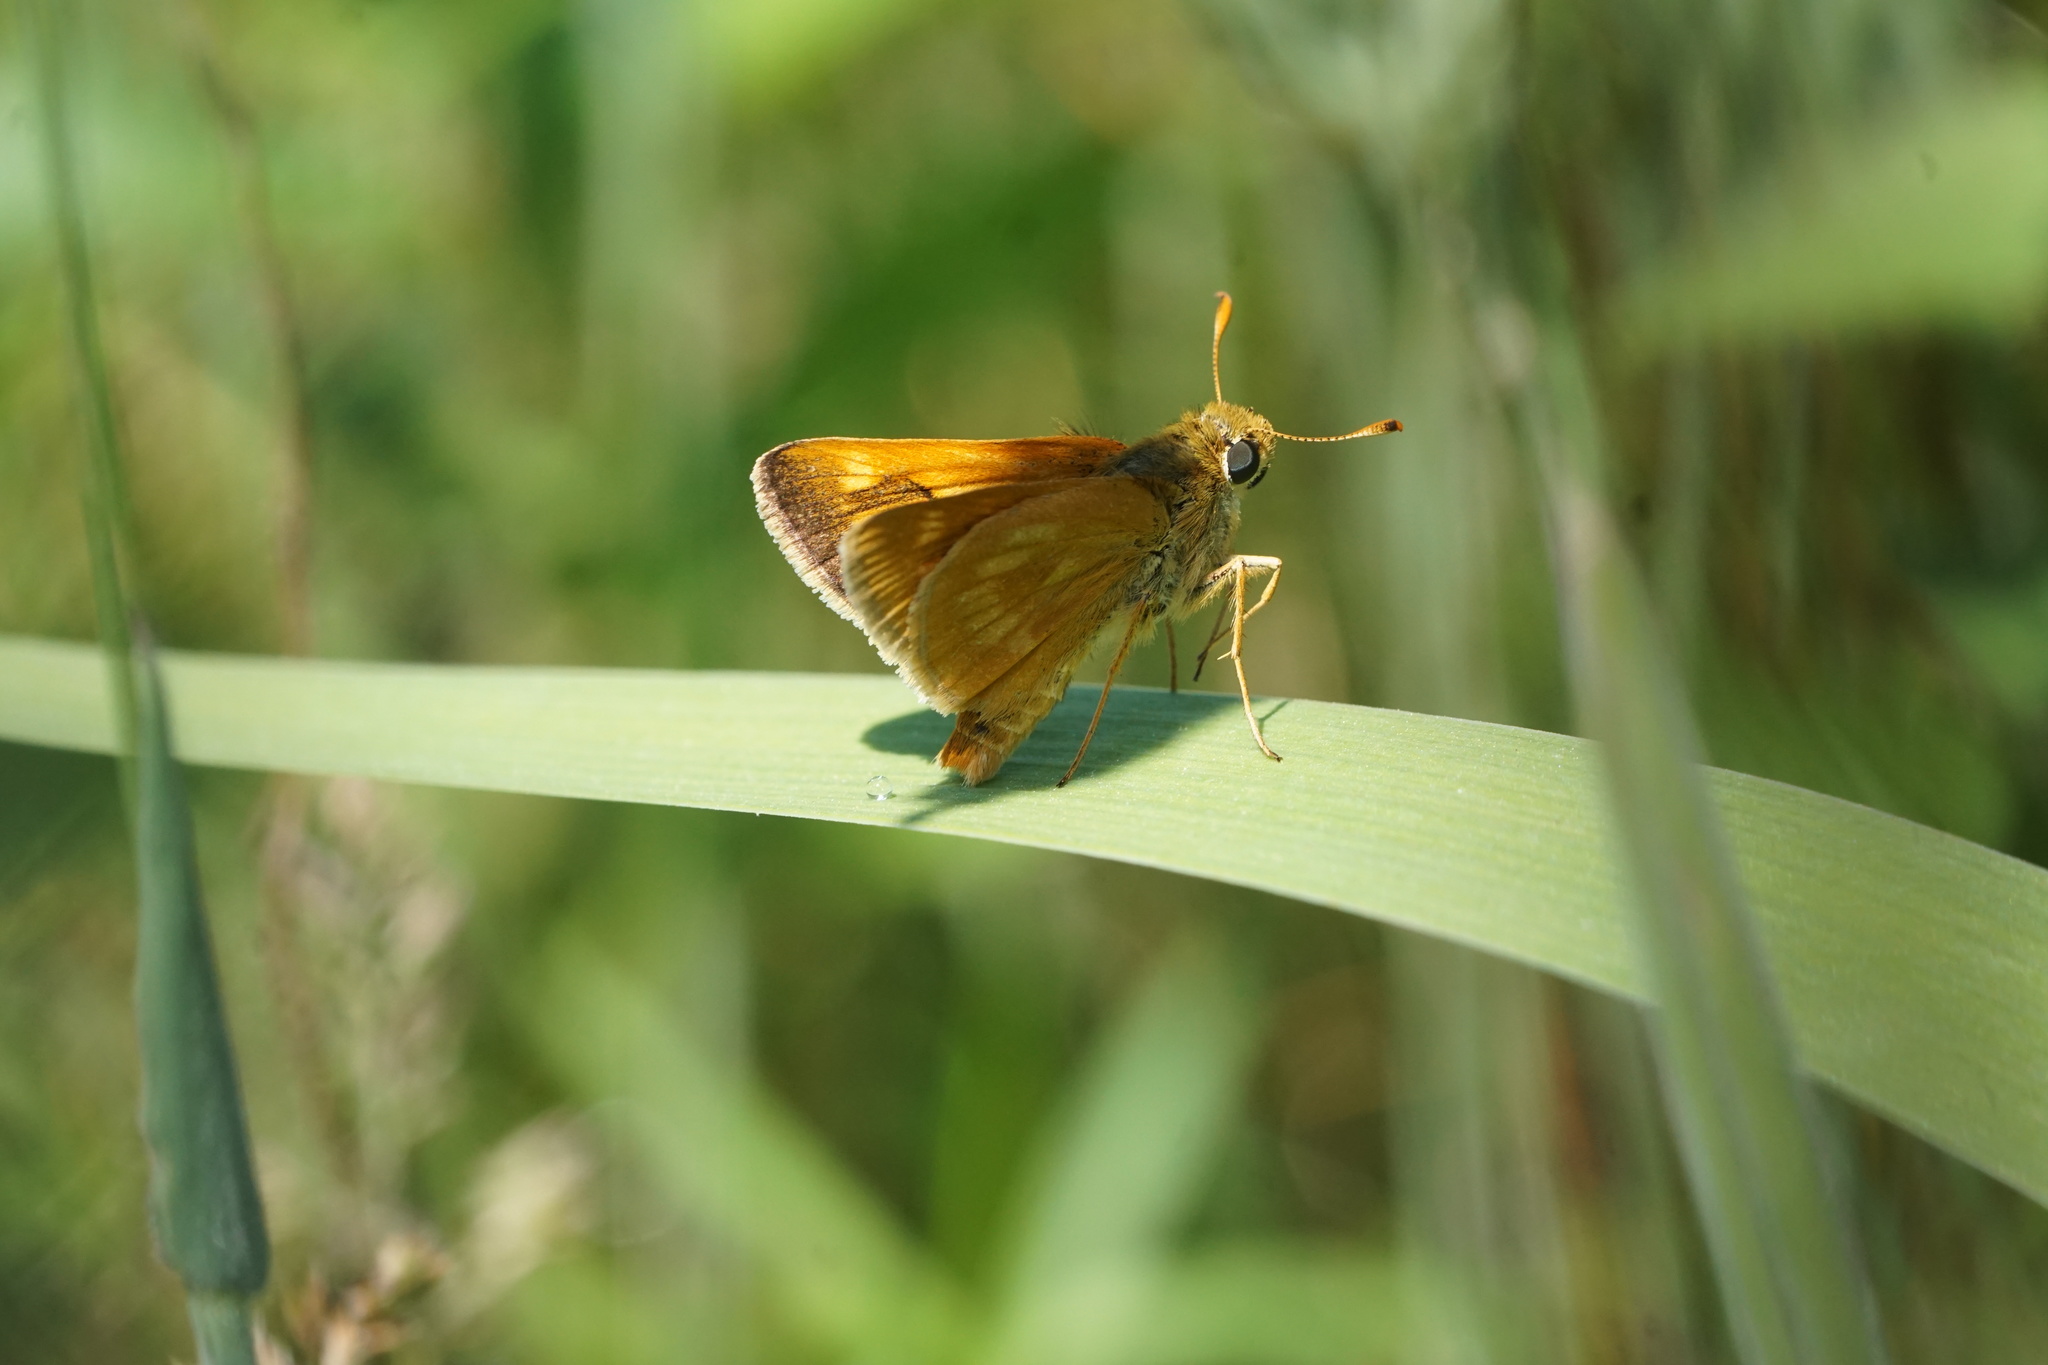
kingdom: Animalia
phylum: Arthropoda
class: Insecta
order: Lepidoptera
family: Hesperiidae
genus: Polites
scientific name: Polites mystic
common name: Long dash
